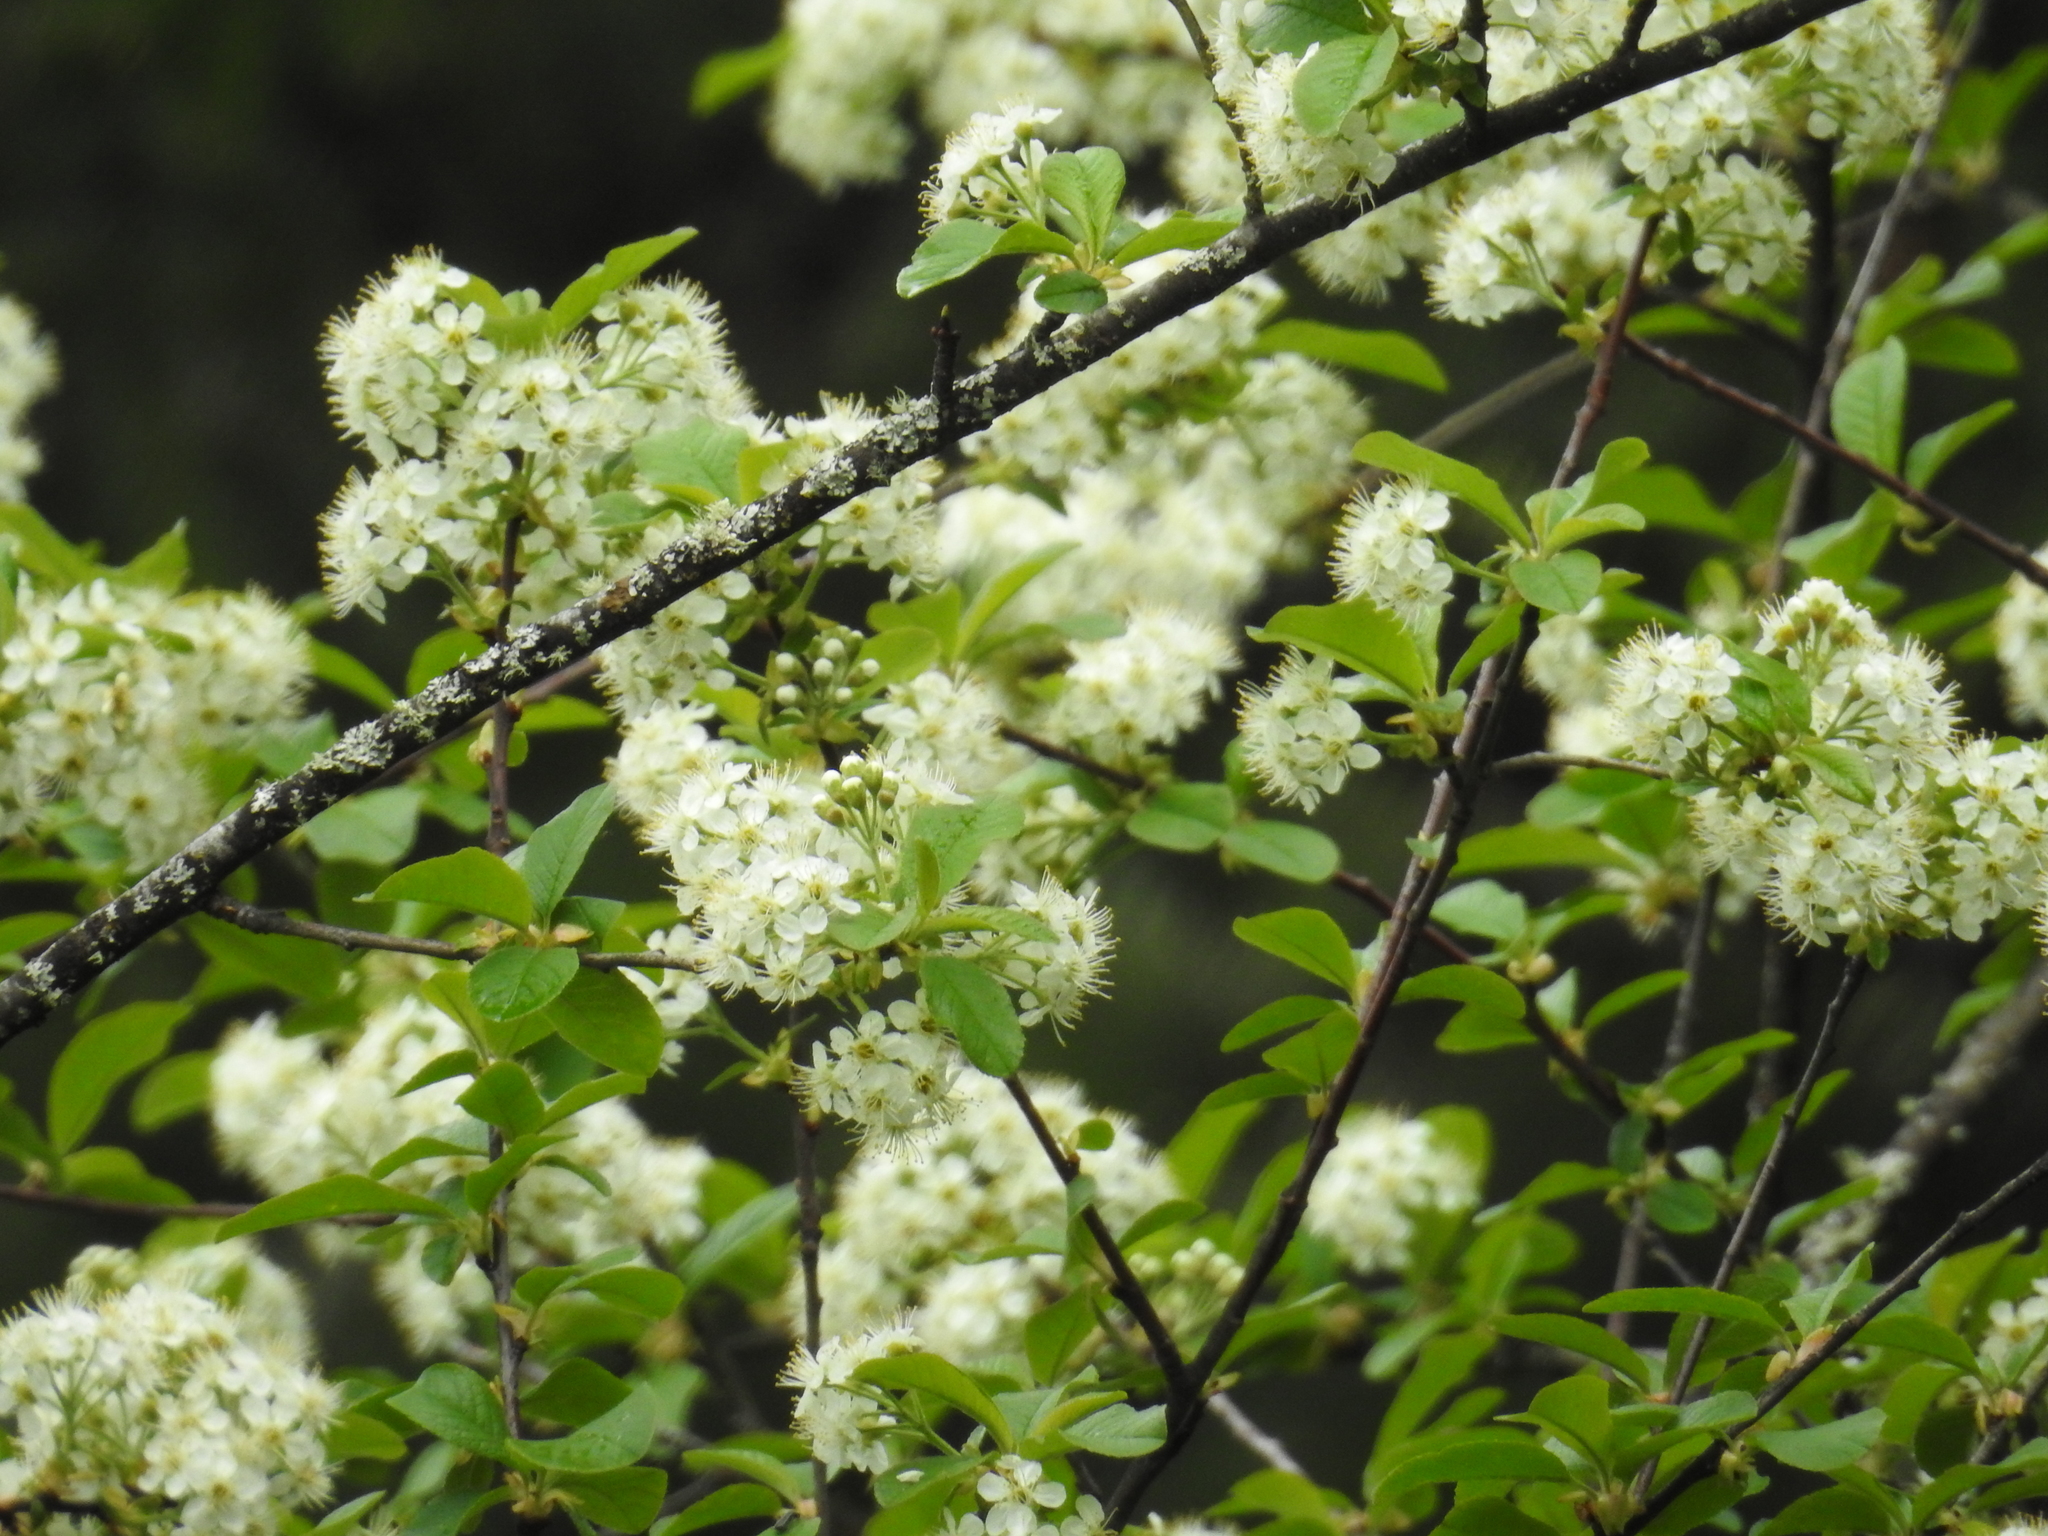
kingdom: Plantae
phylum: Tracheophyta
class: Magnoliopsida
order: Rosales
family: Rosaceae
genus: Prunus
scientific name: Prunus emarginata
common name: Bitter cherry
